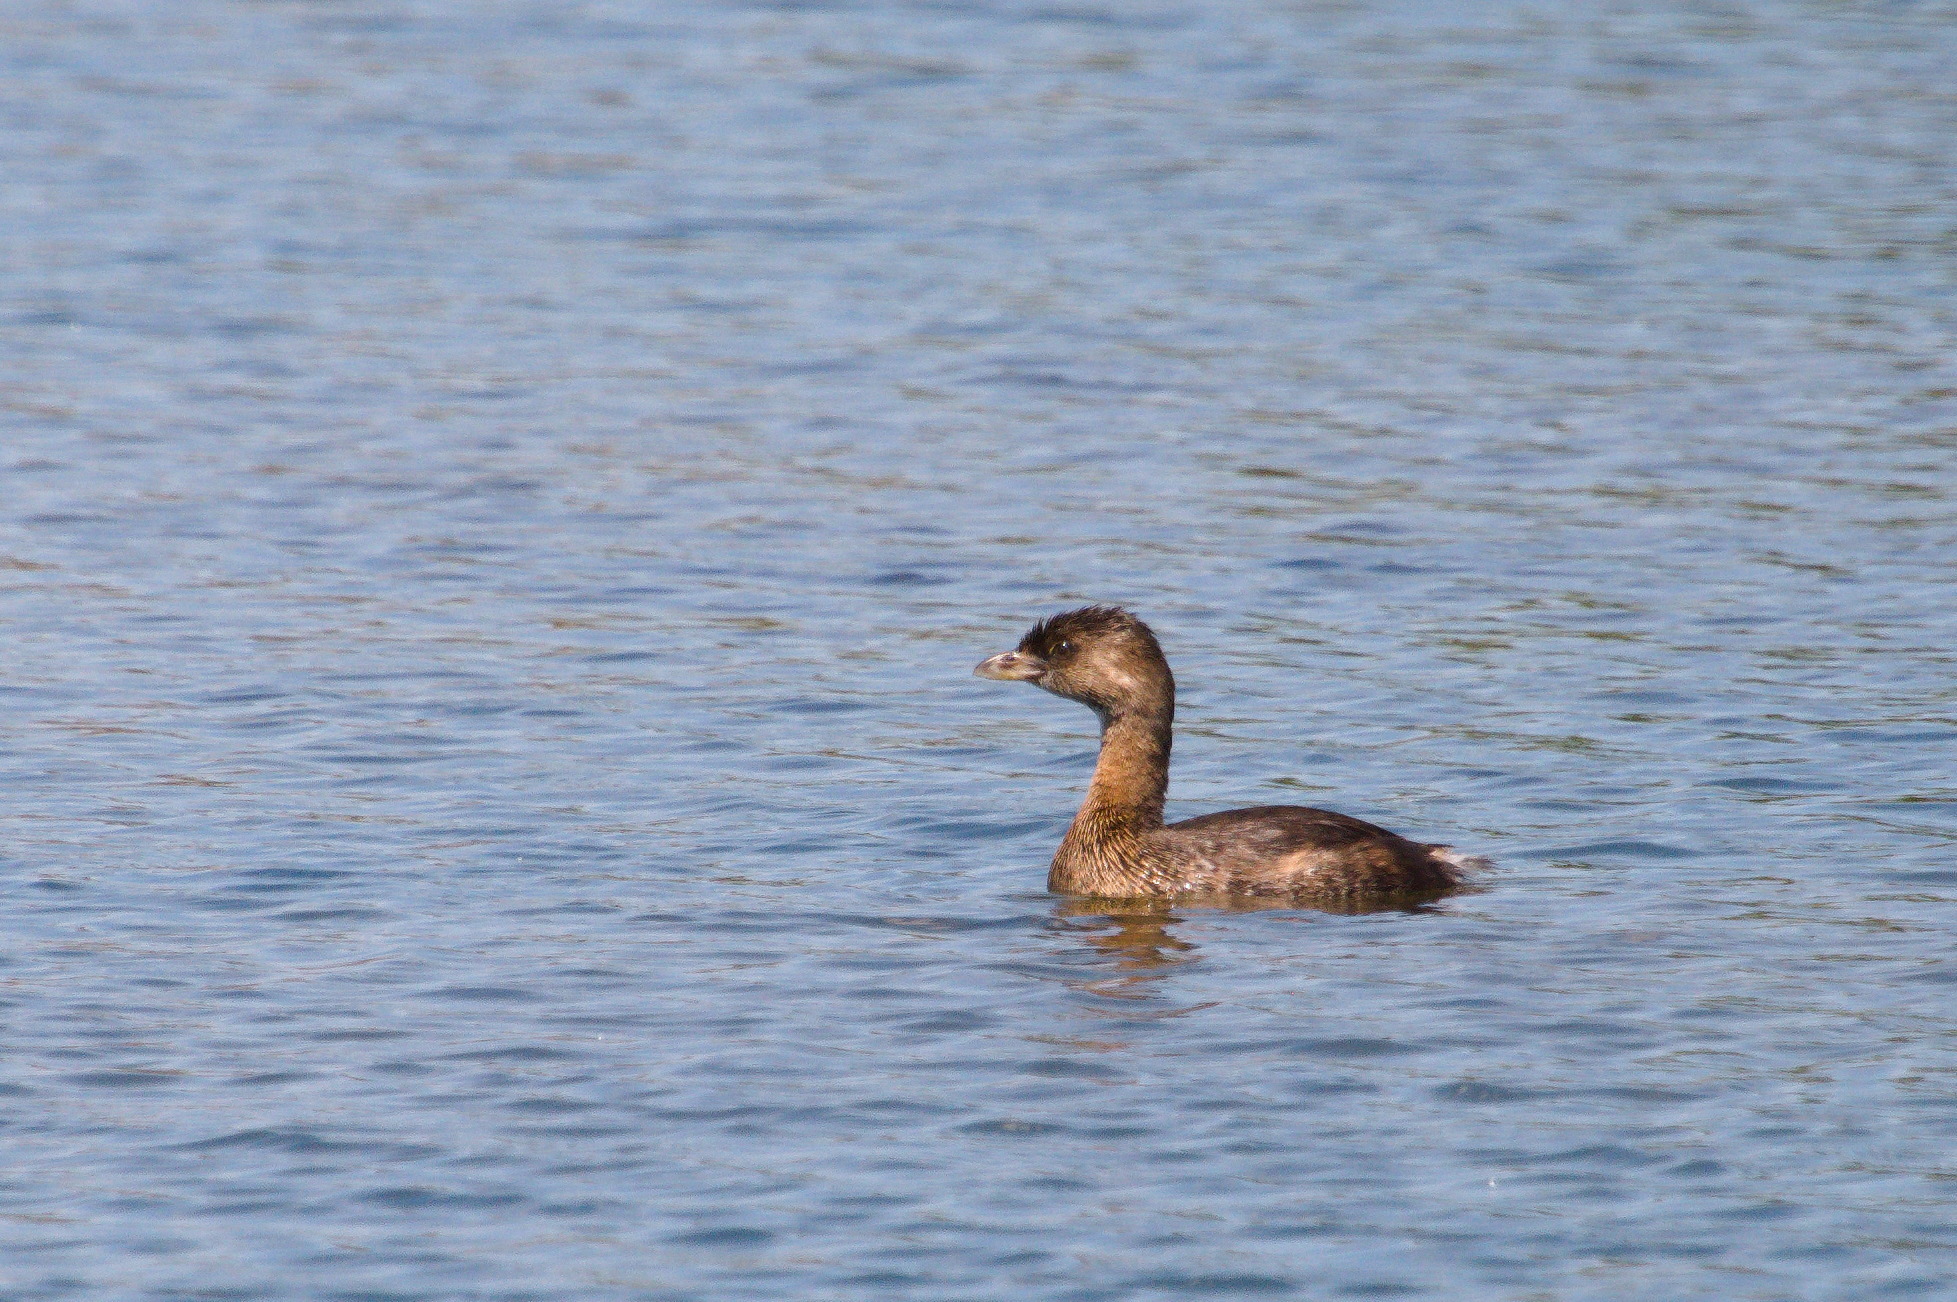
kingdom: Animalia
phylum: Chordata
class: Aves
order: Podicipediformes
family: Podicipedidae
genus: Podilymbus
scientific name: Podilymbus podiceps
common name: Pied-billed grebe
